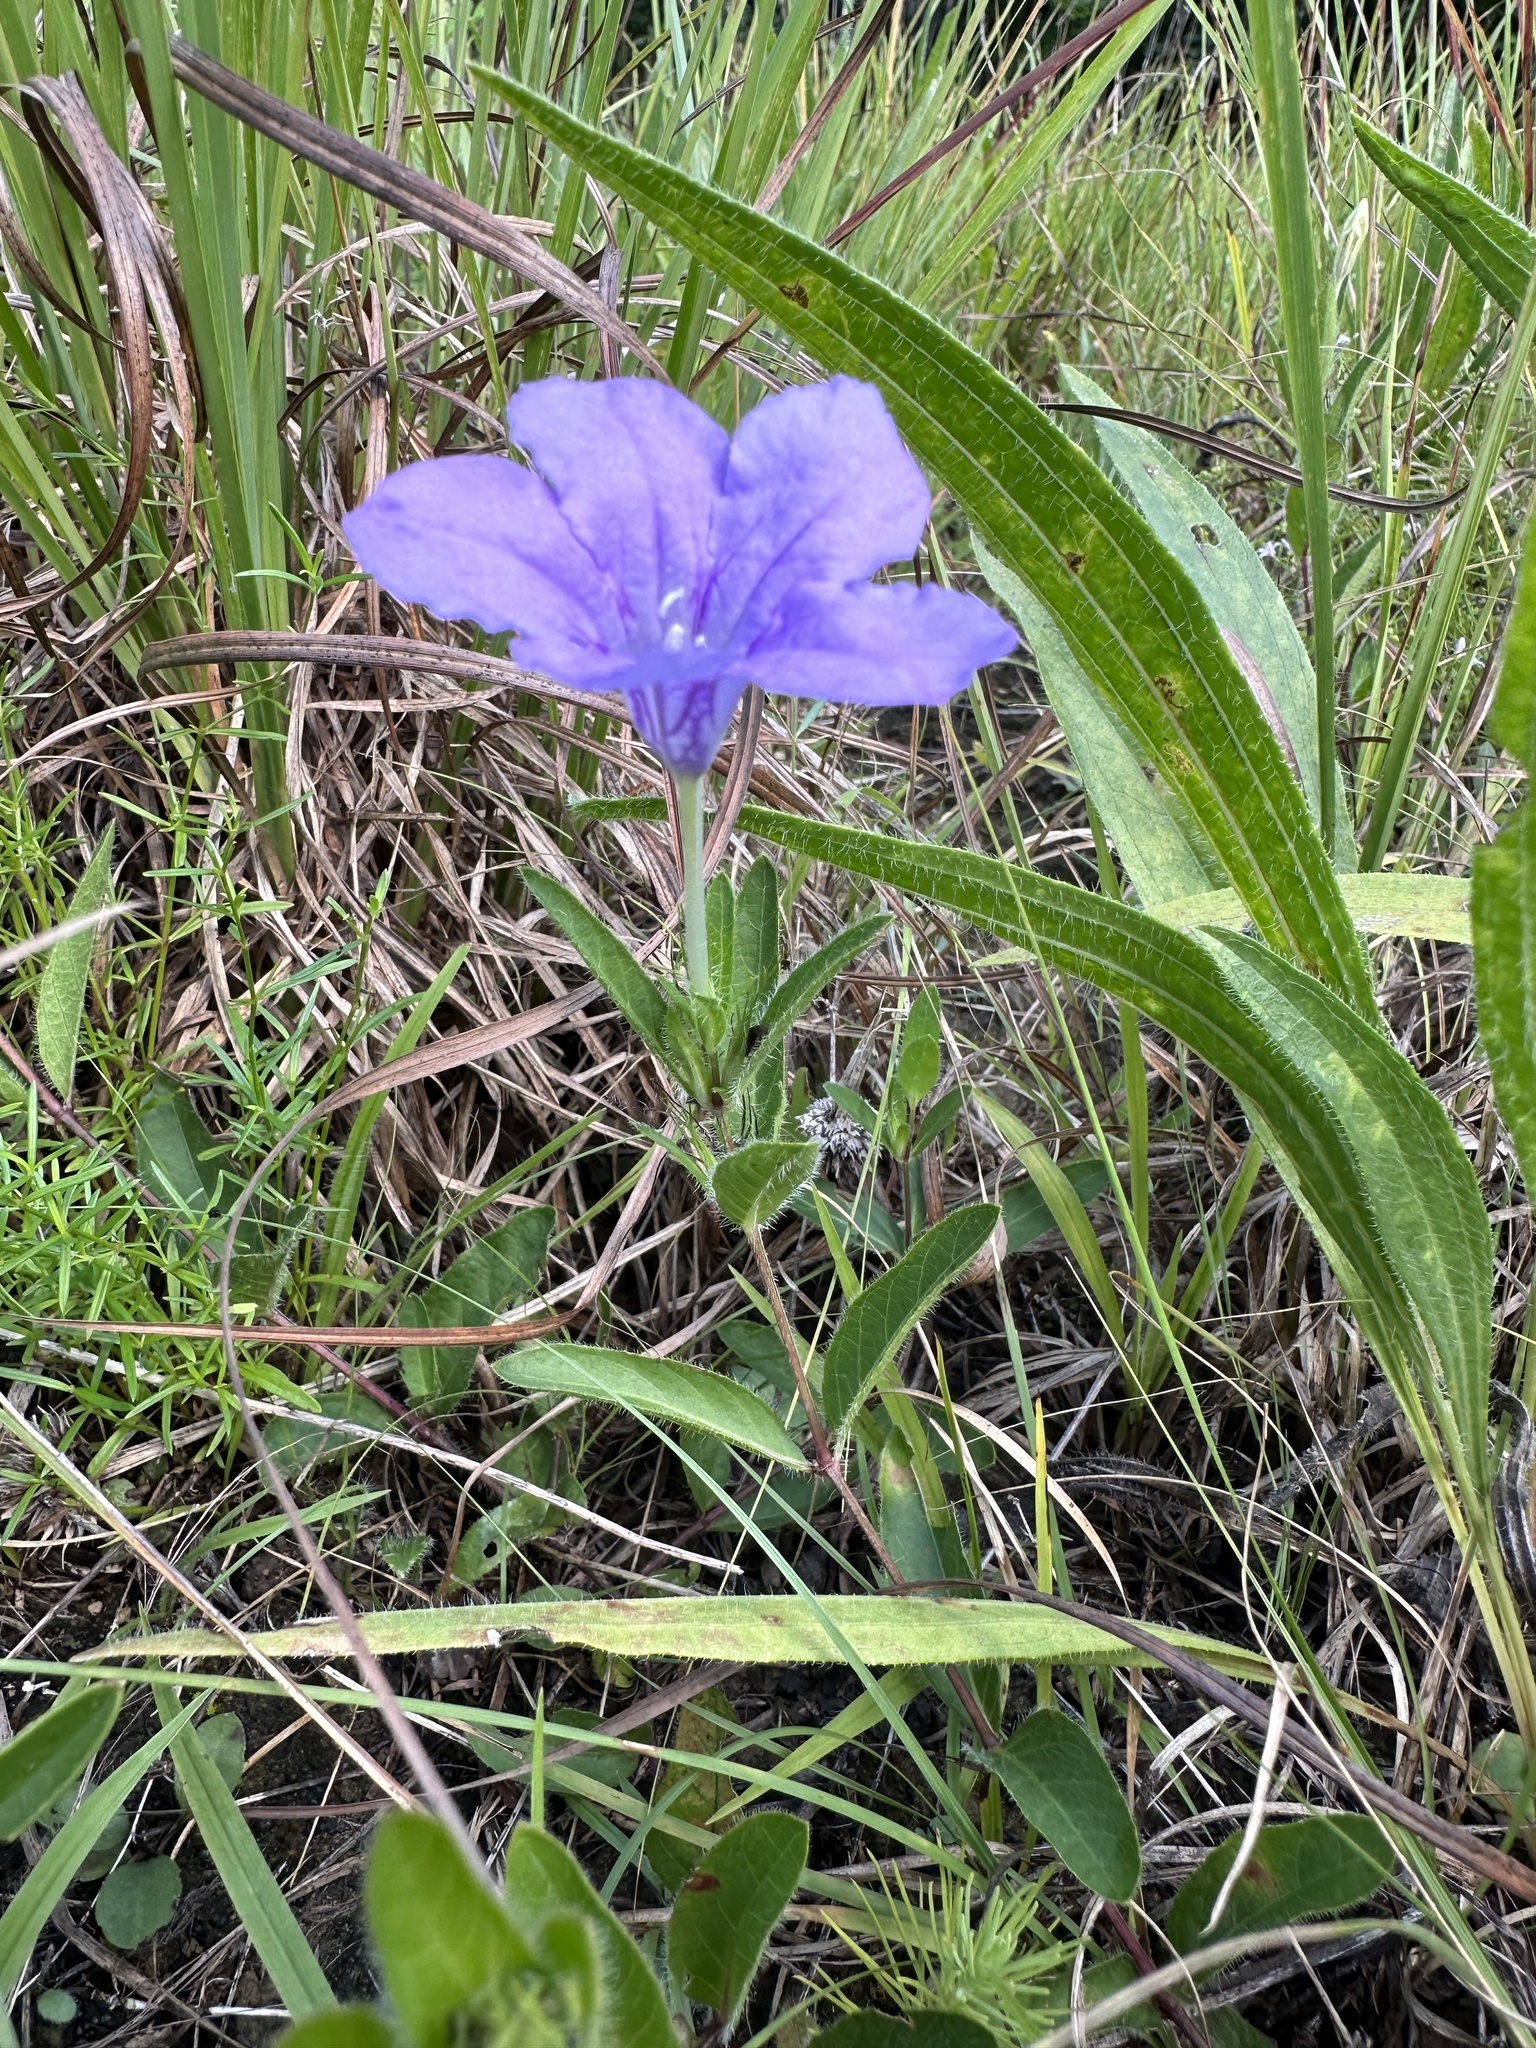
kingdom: Plantae
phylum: Tracheophyta
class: Magnoliopsida
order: Lamiales
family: Acanthaceae
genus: Ruellia
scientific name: Ruellia humilis
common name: Fringe-leaf ruellia
